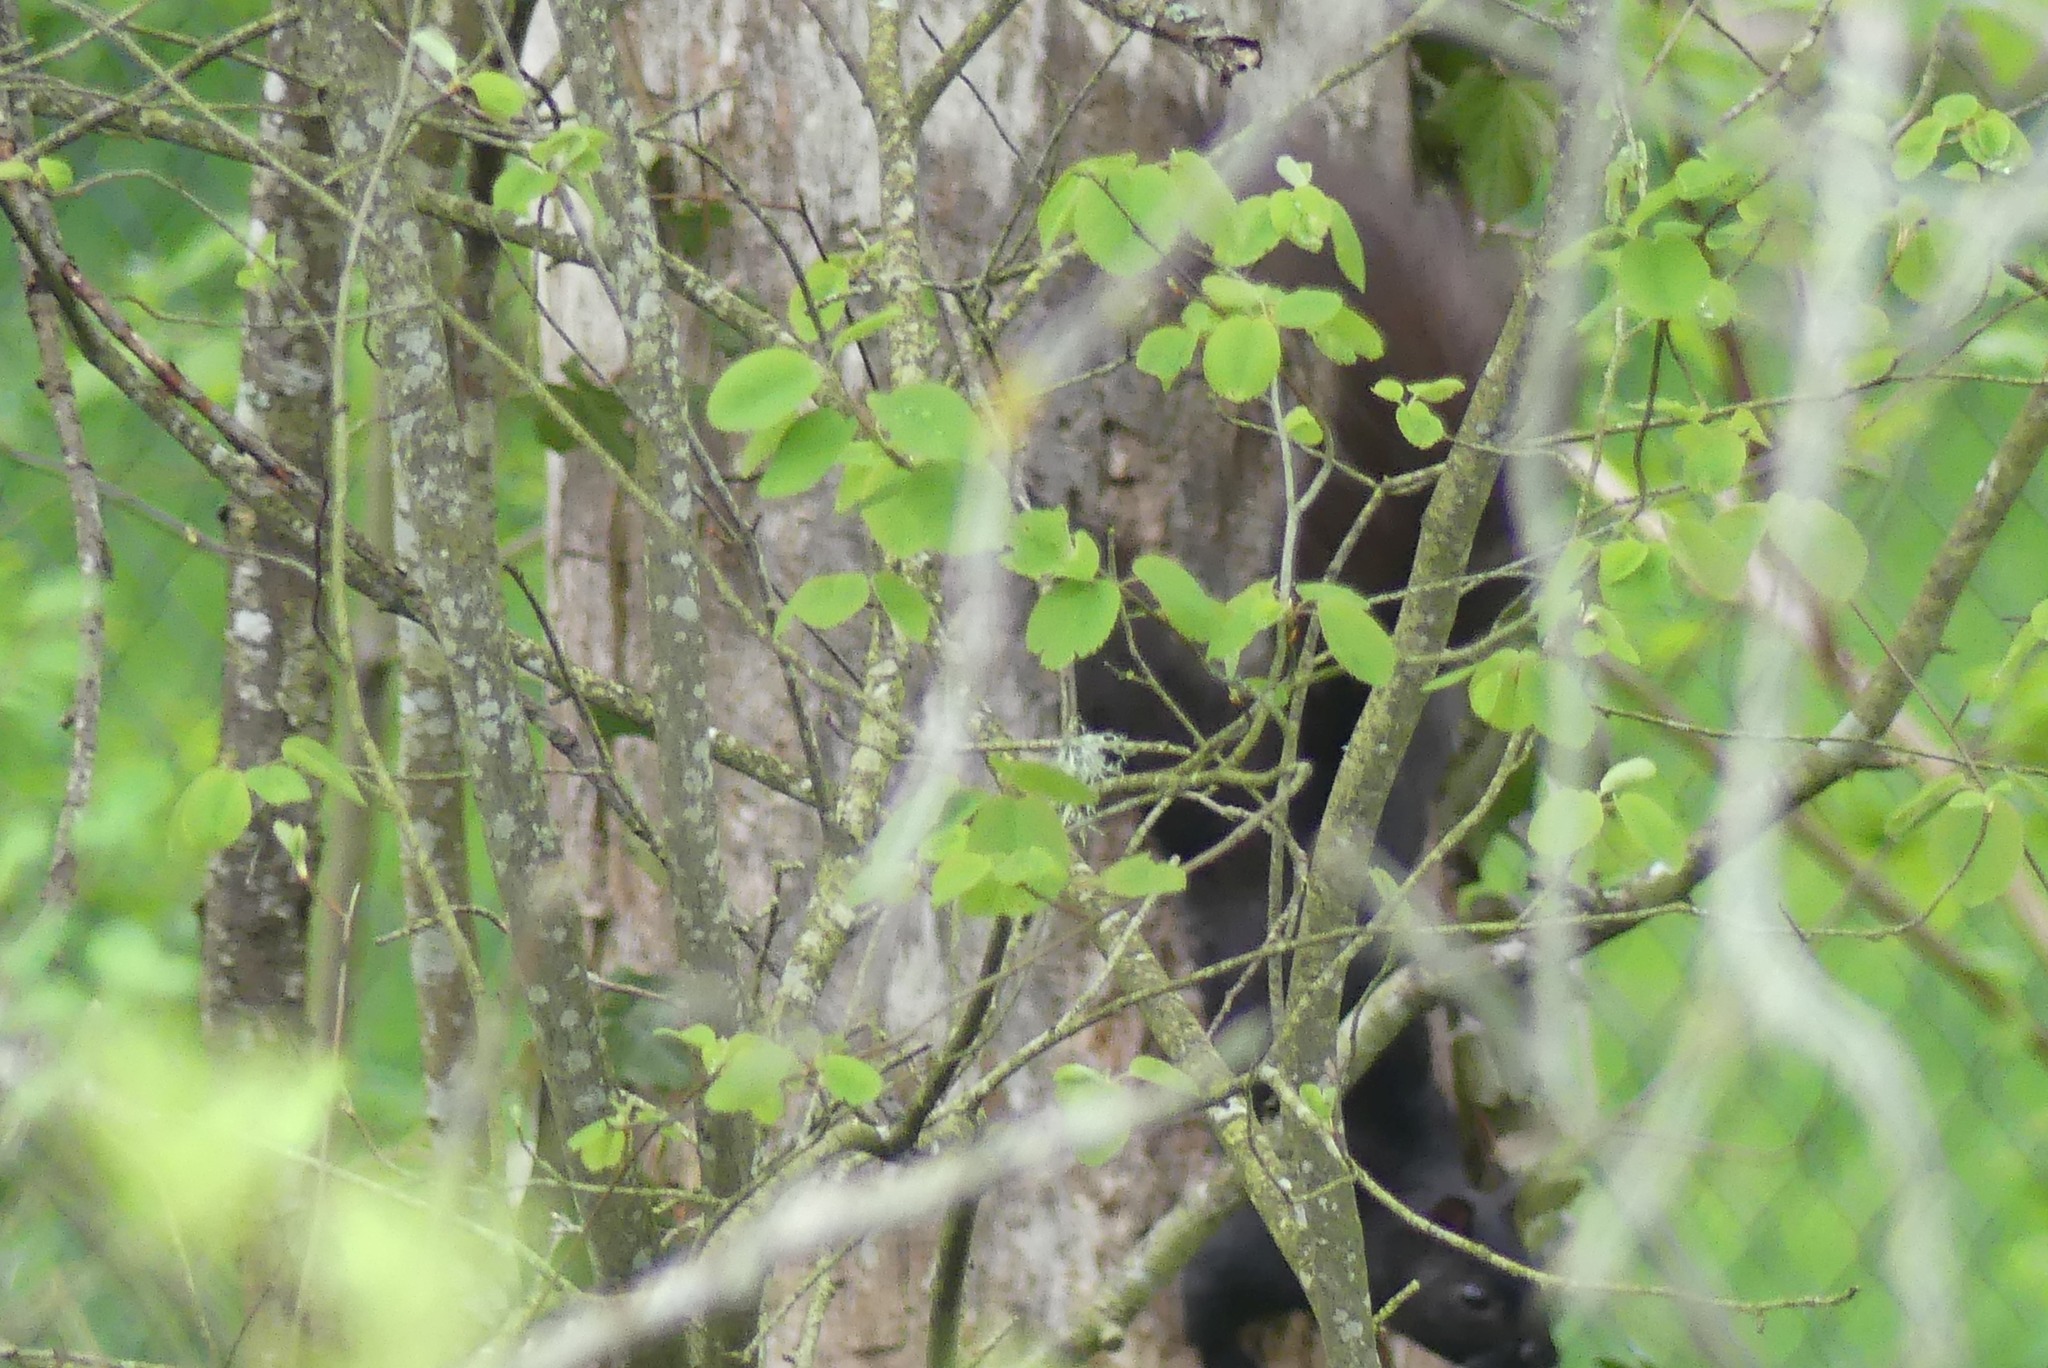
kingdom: Animalia
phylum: Chordata
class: Mammalia
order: Rodentia
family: Sciuridae
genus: Sciurus
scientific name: Sciurus carolinensis
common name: Eastern gray squirrel
